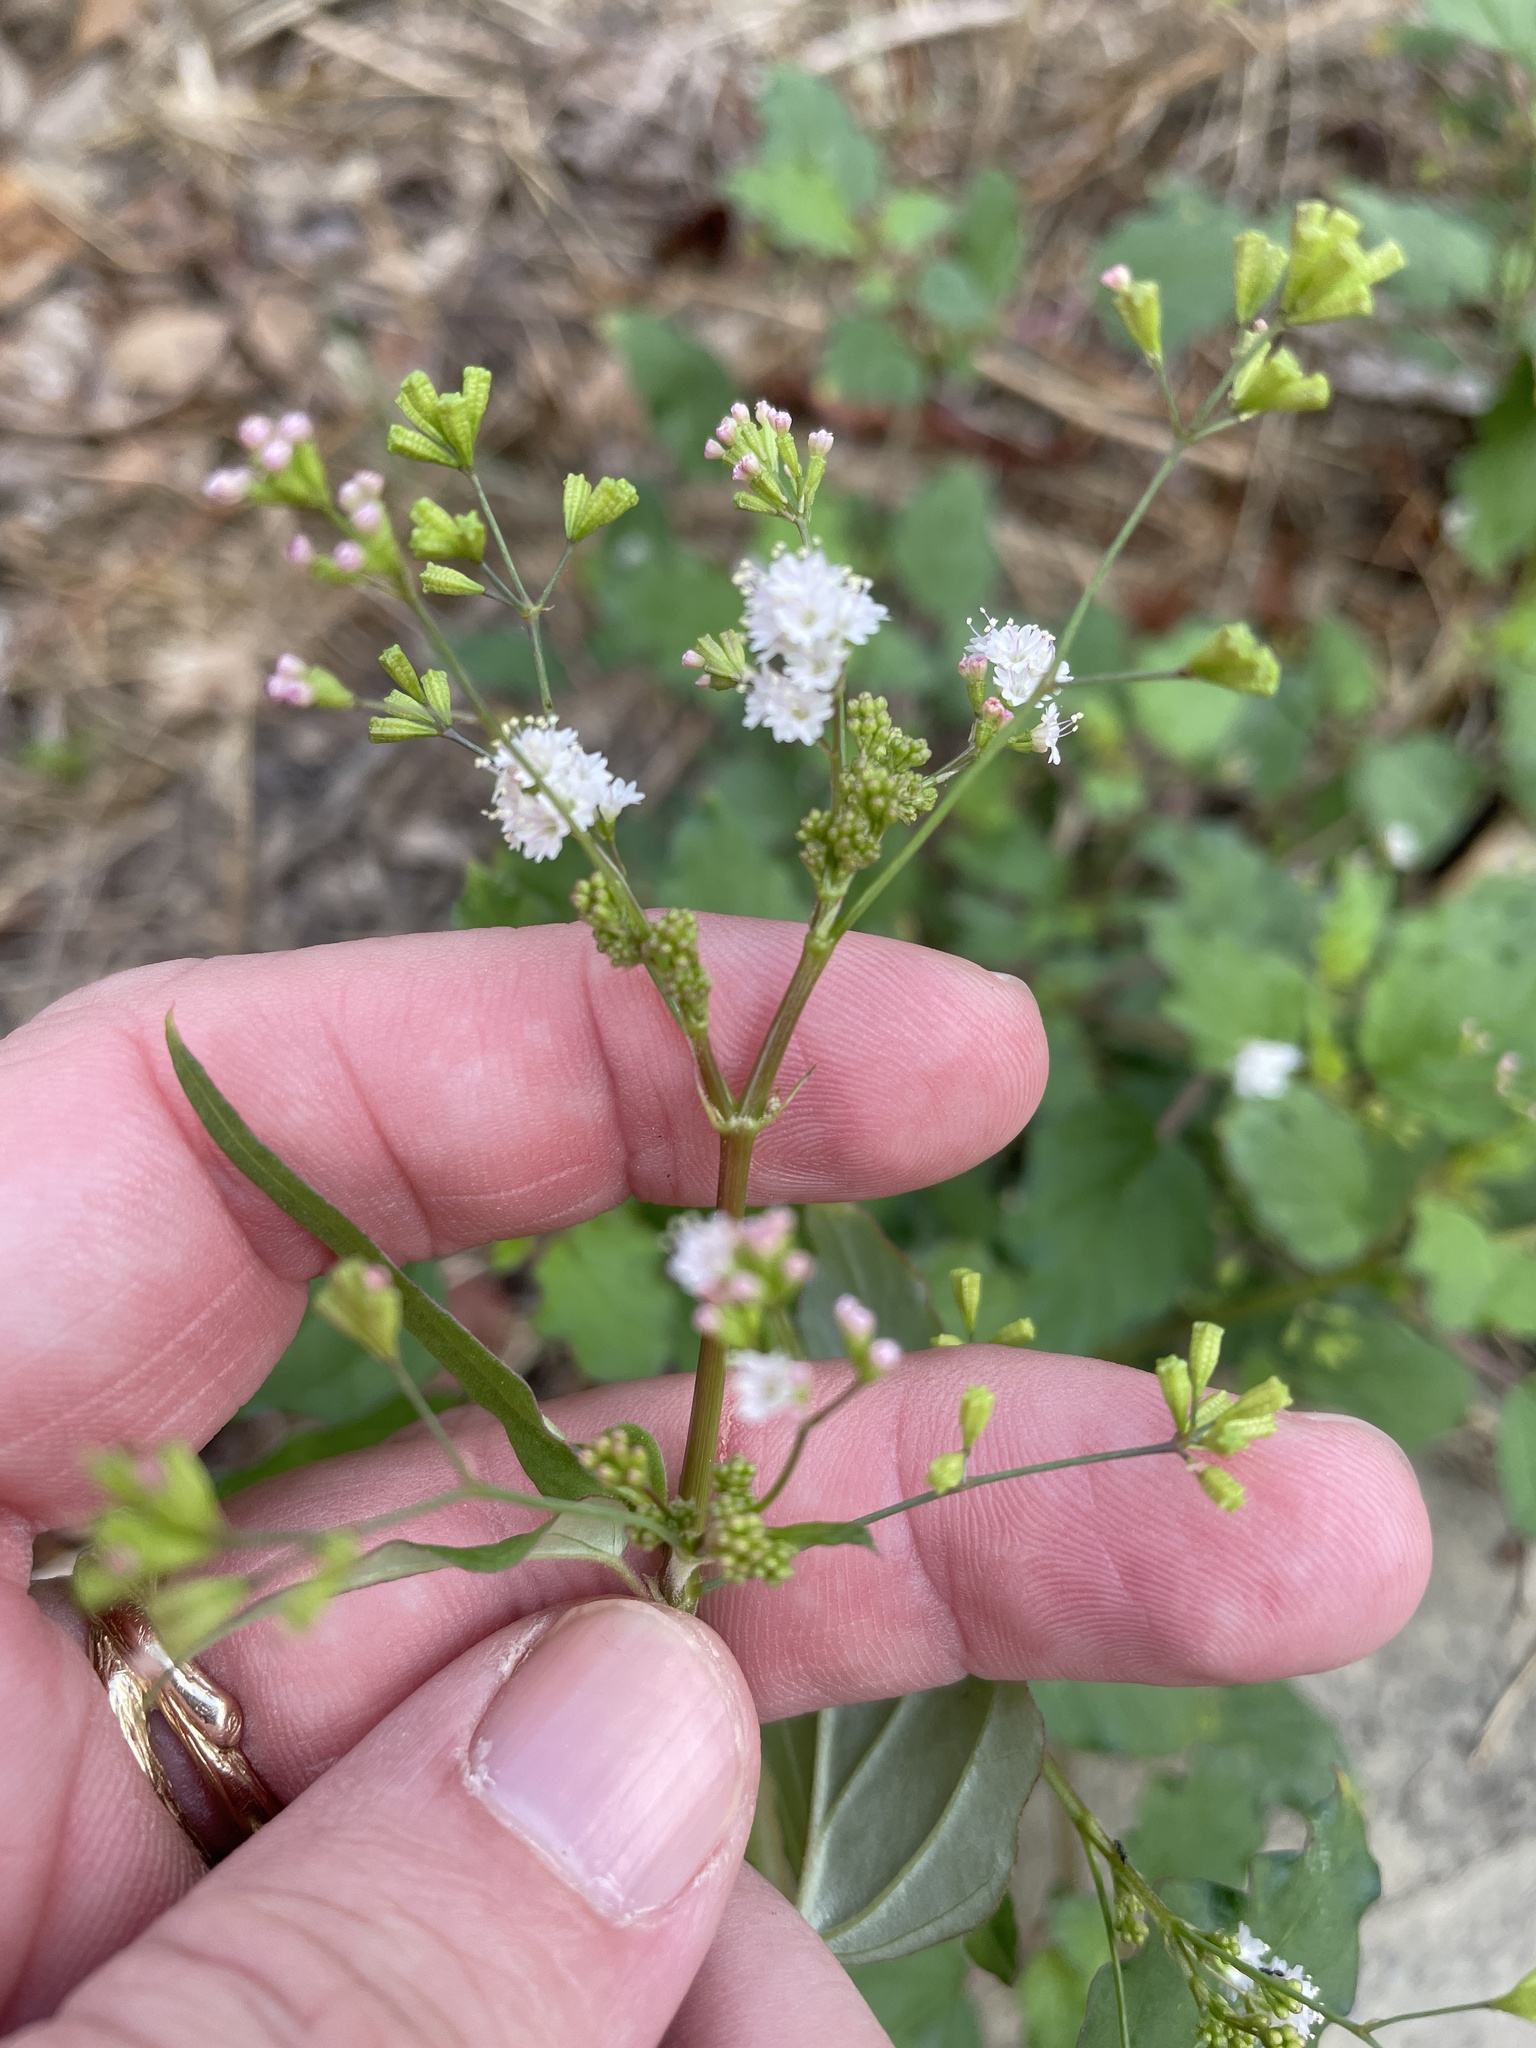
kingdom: Plantae
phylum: Tracheophyta
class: Magnoliopsida
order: Caryophyllales
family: Nyctaginaceae
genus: Boerhavia
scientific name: Boerhavia erecta
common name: Erect spiderling
